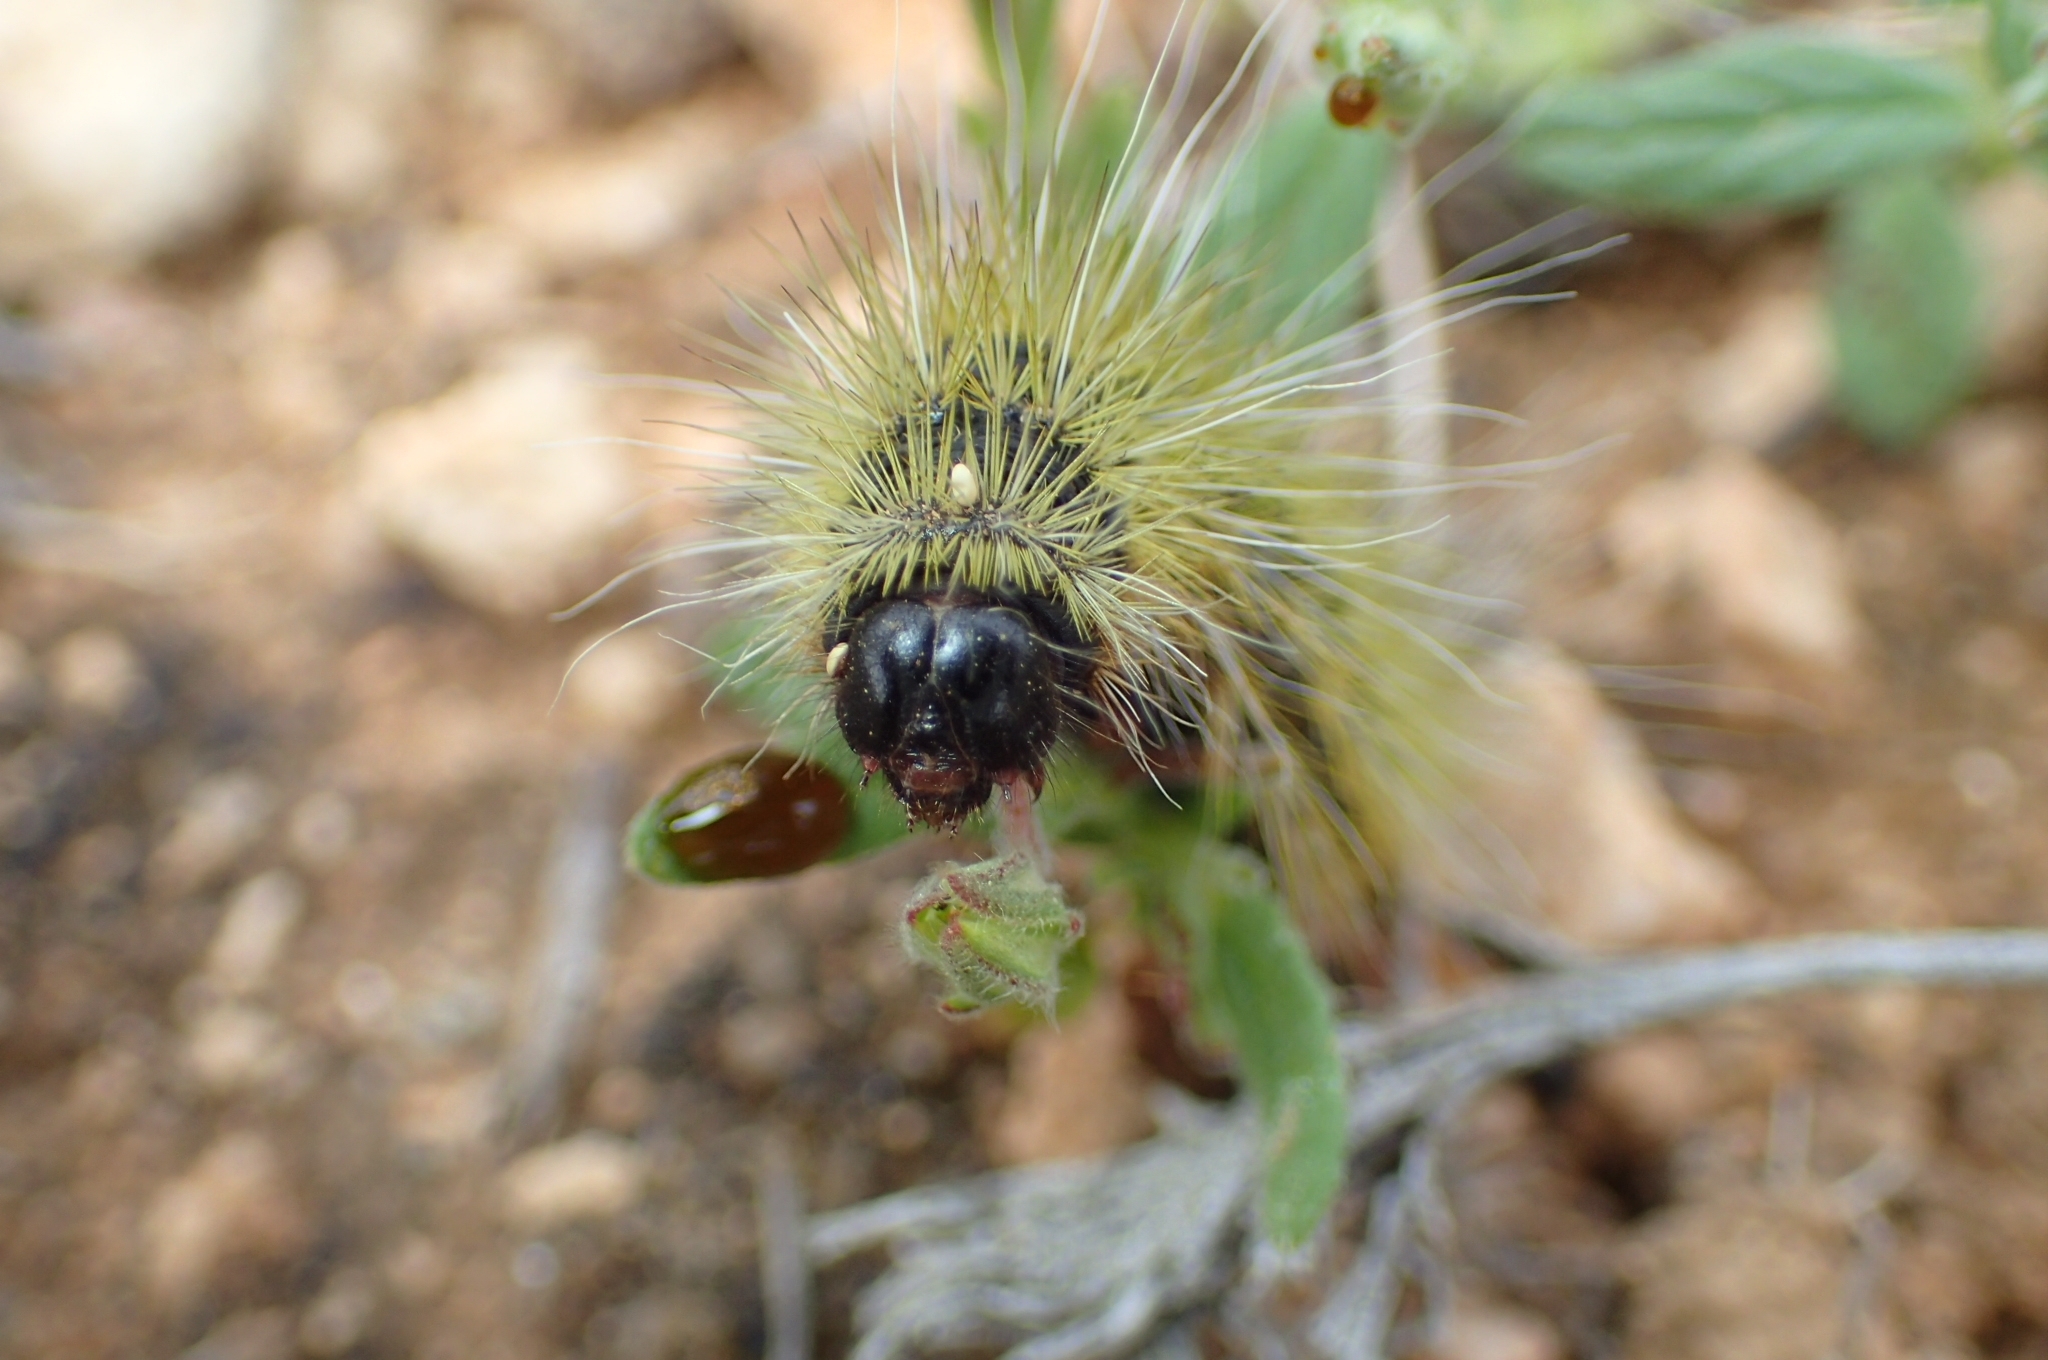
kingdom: Animalia
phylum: Arthropoda
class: Insecta
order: Lepidoptera
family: Notodontidae
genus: Thaumetopoea
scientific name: Thaumetopoea herculeana
